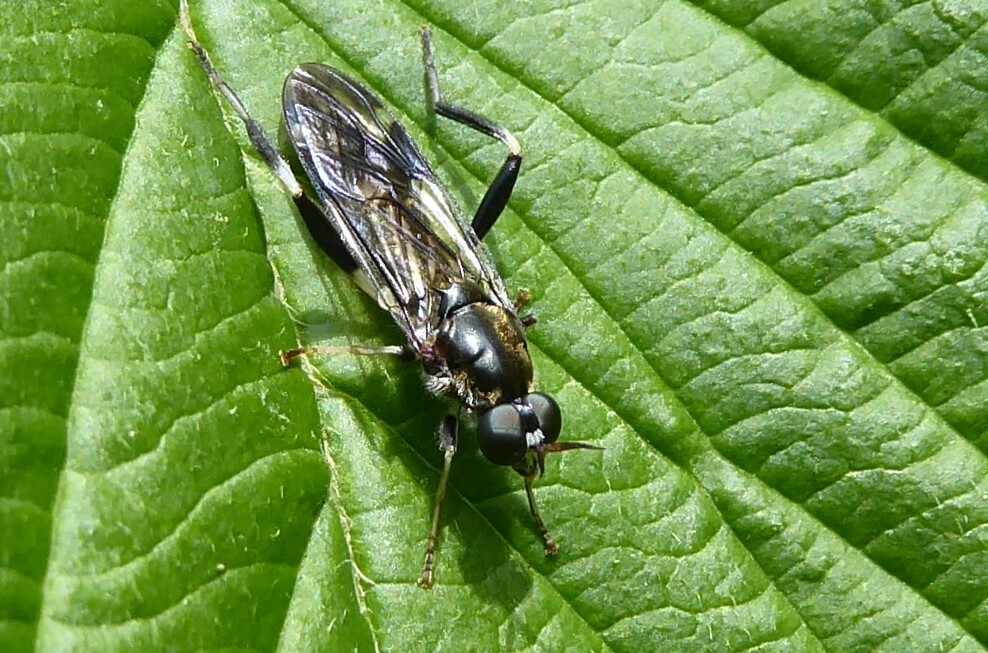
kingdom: Animalia
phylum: Arthropoda
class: Insecta
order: Diptera
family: Stratiomyidae
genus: Exaireta
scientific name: Exaireta spinigera
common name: Blue soldier fly
